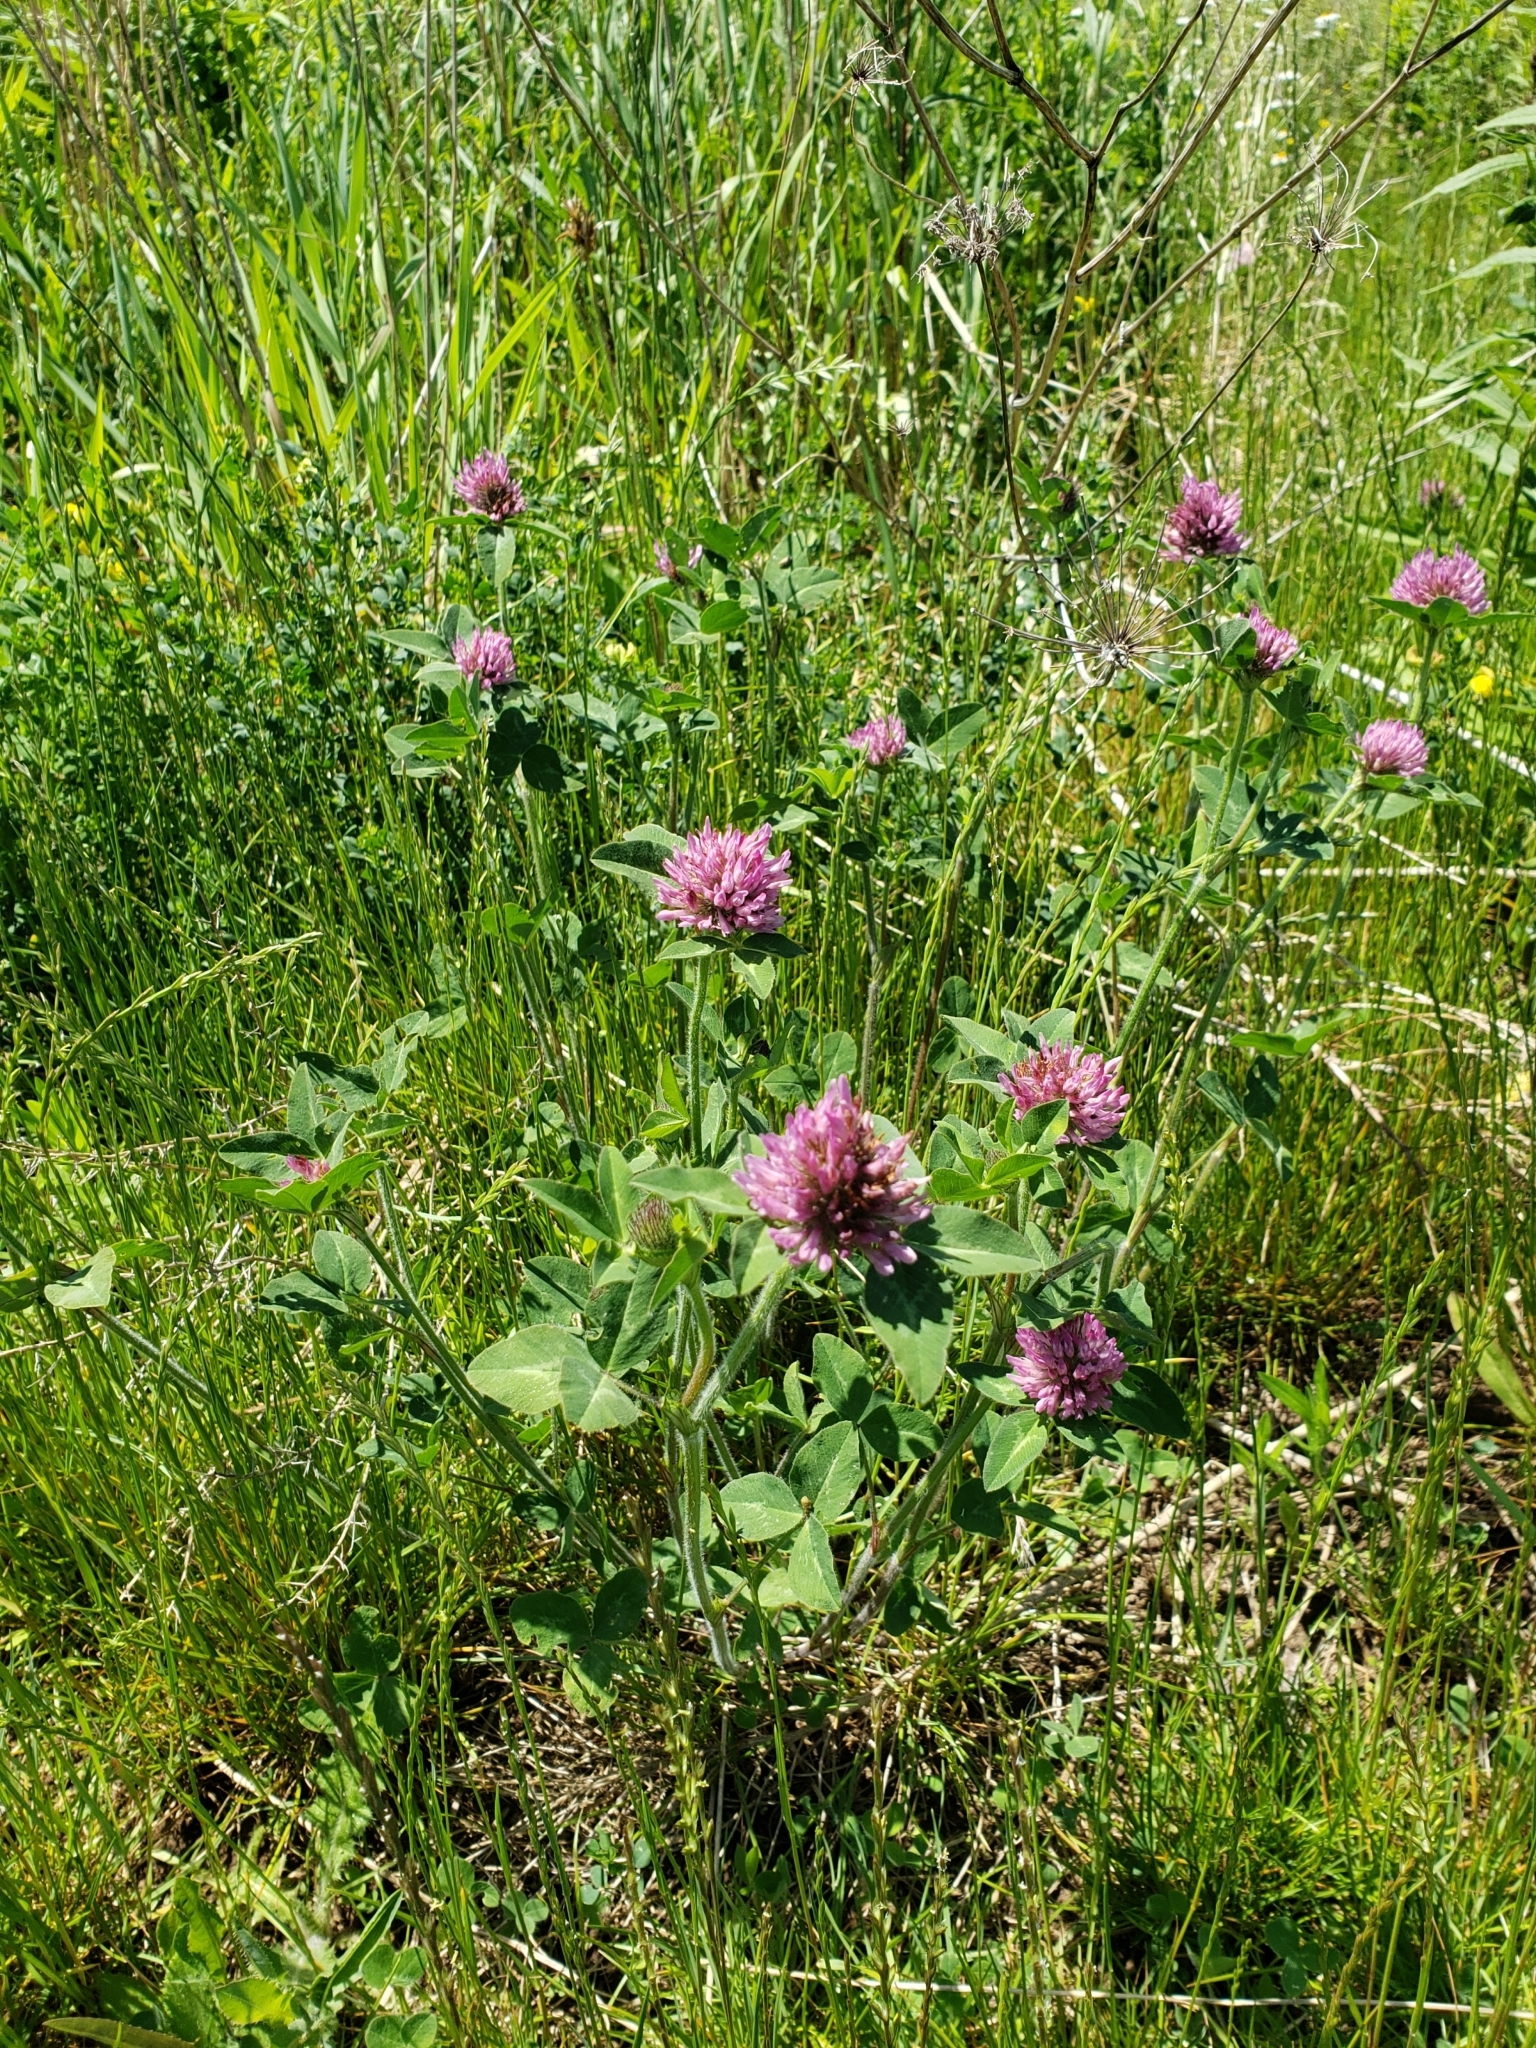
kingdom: Plantae
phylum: Tracheophyta
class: Magnoliopsida
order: Fabales
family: Fabaceae
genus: Trifolium
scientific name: Trifolium pratense
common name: Red clover
